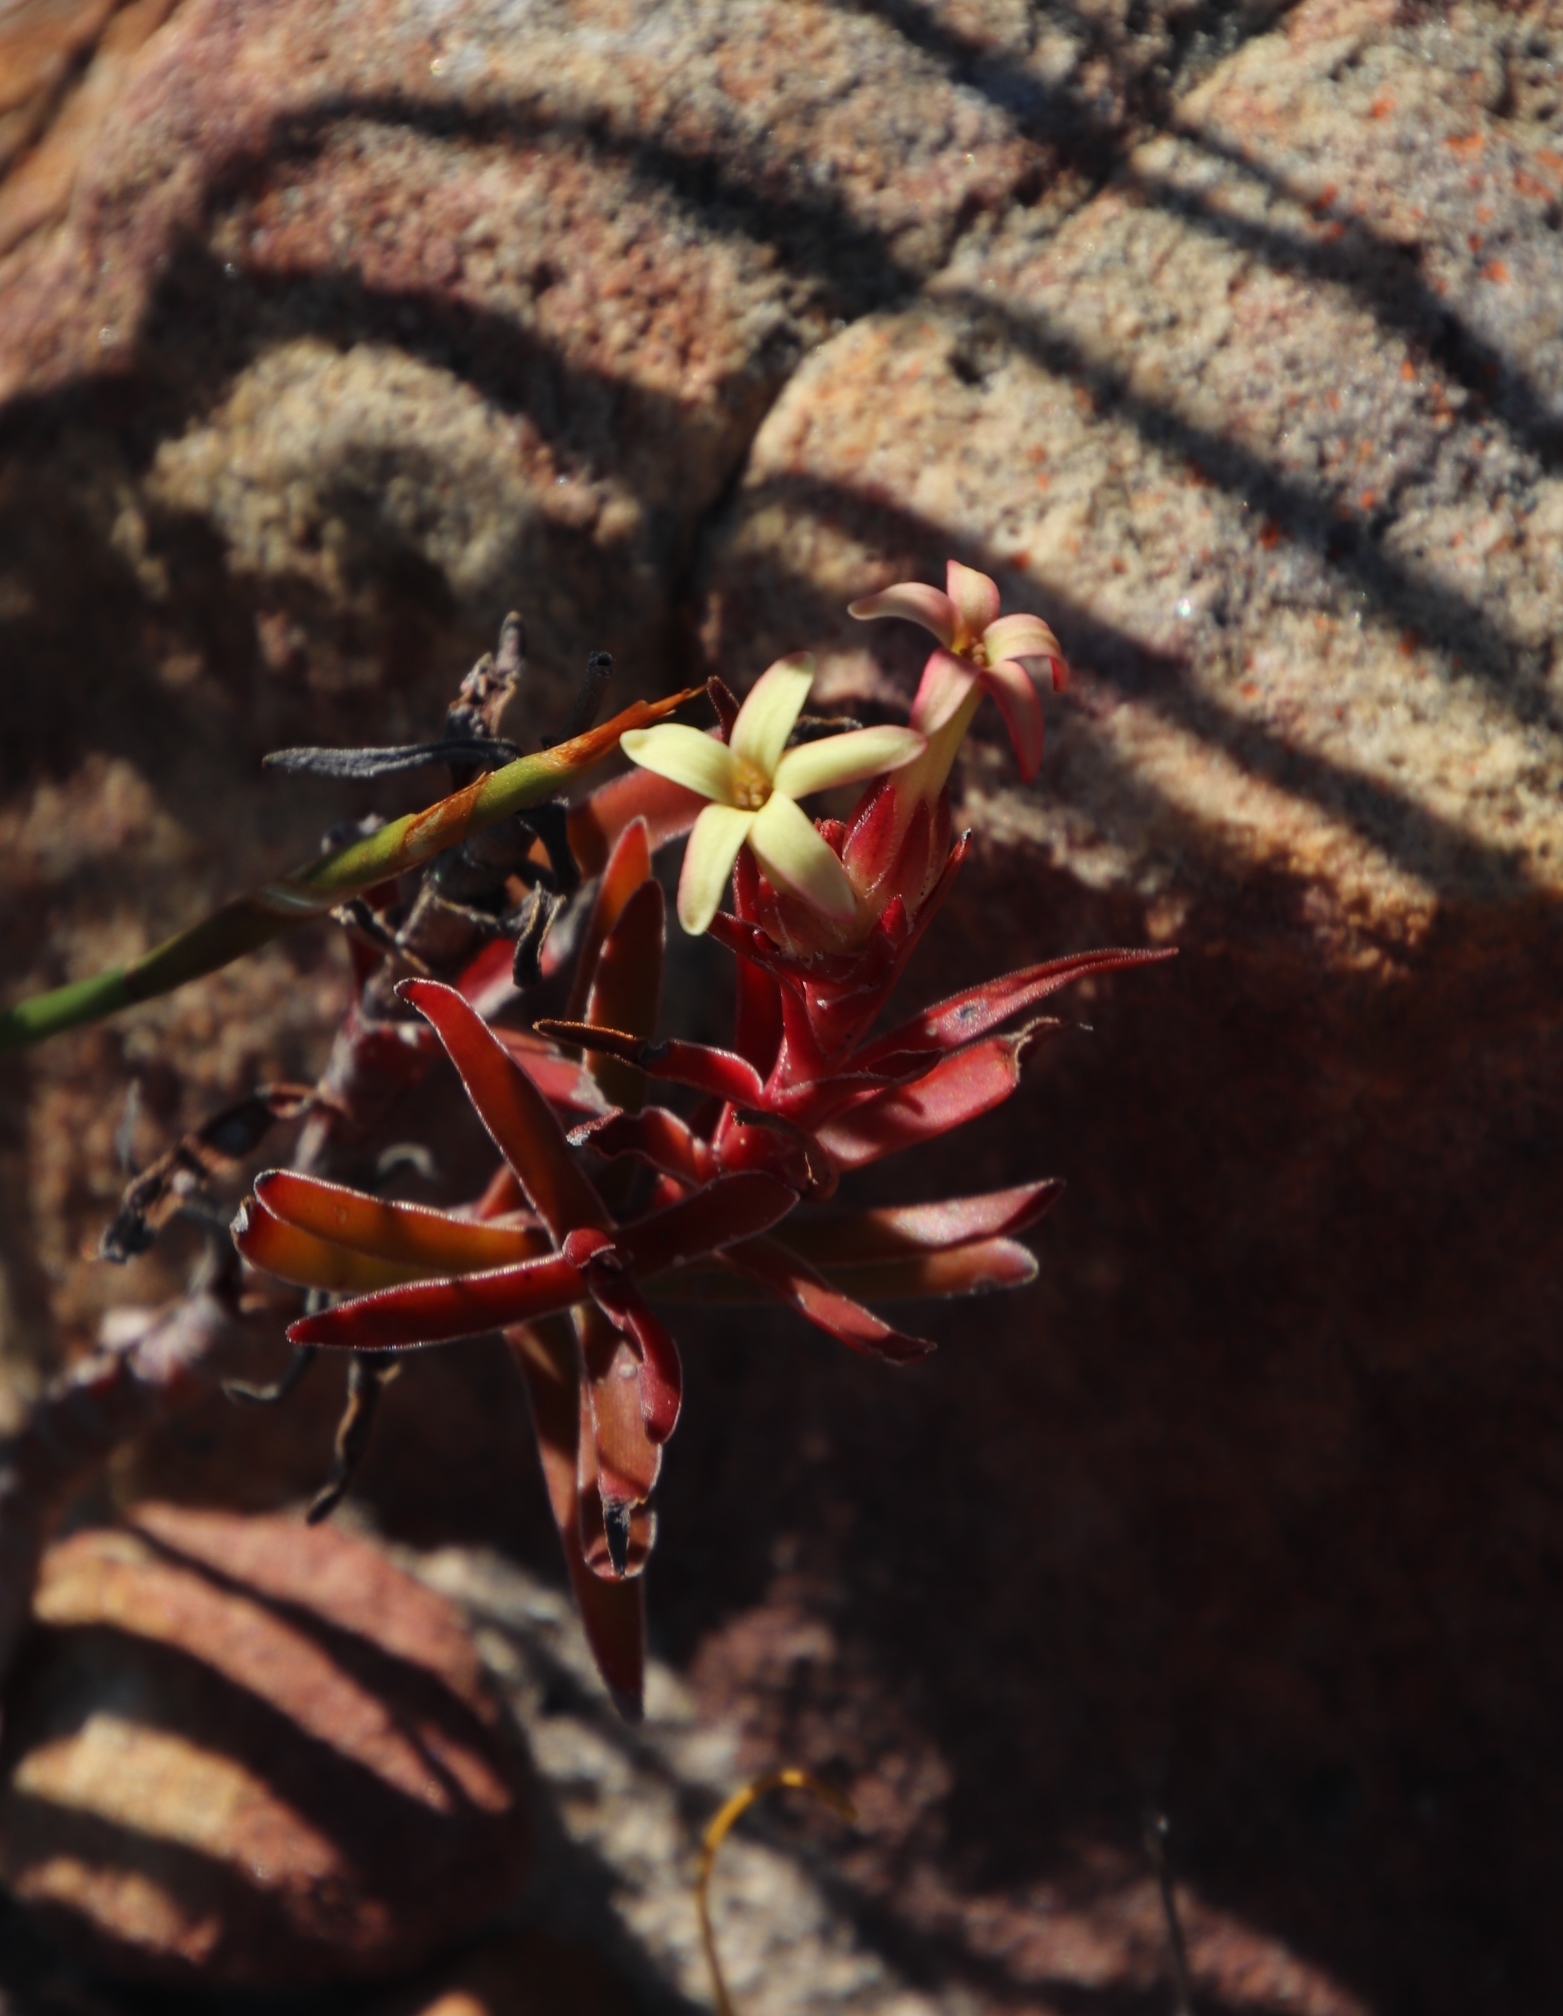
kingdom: Plantae
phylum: Tracheophyta
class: Magnoliopsida
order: Saxifragales
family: Crassulaceae
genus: Crassula
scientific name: Crassula fascicularis
